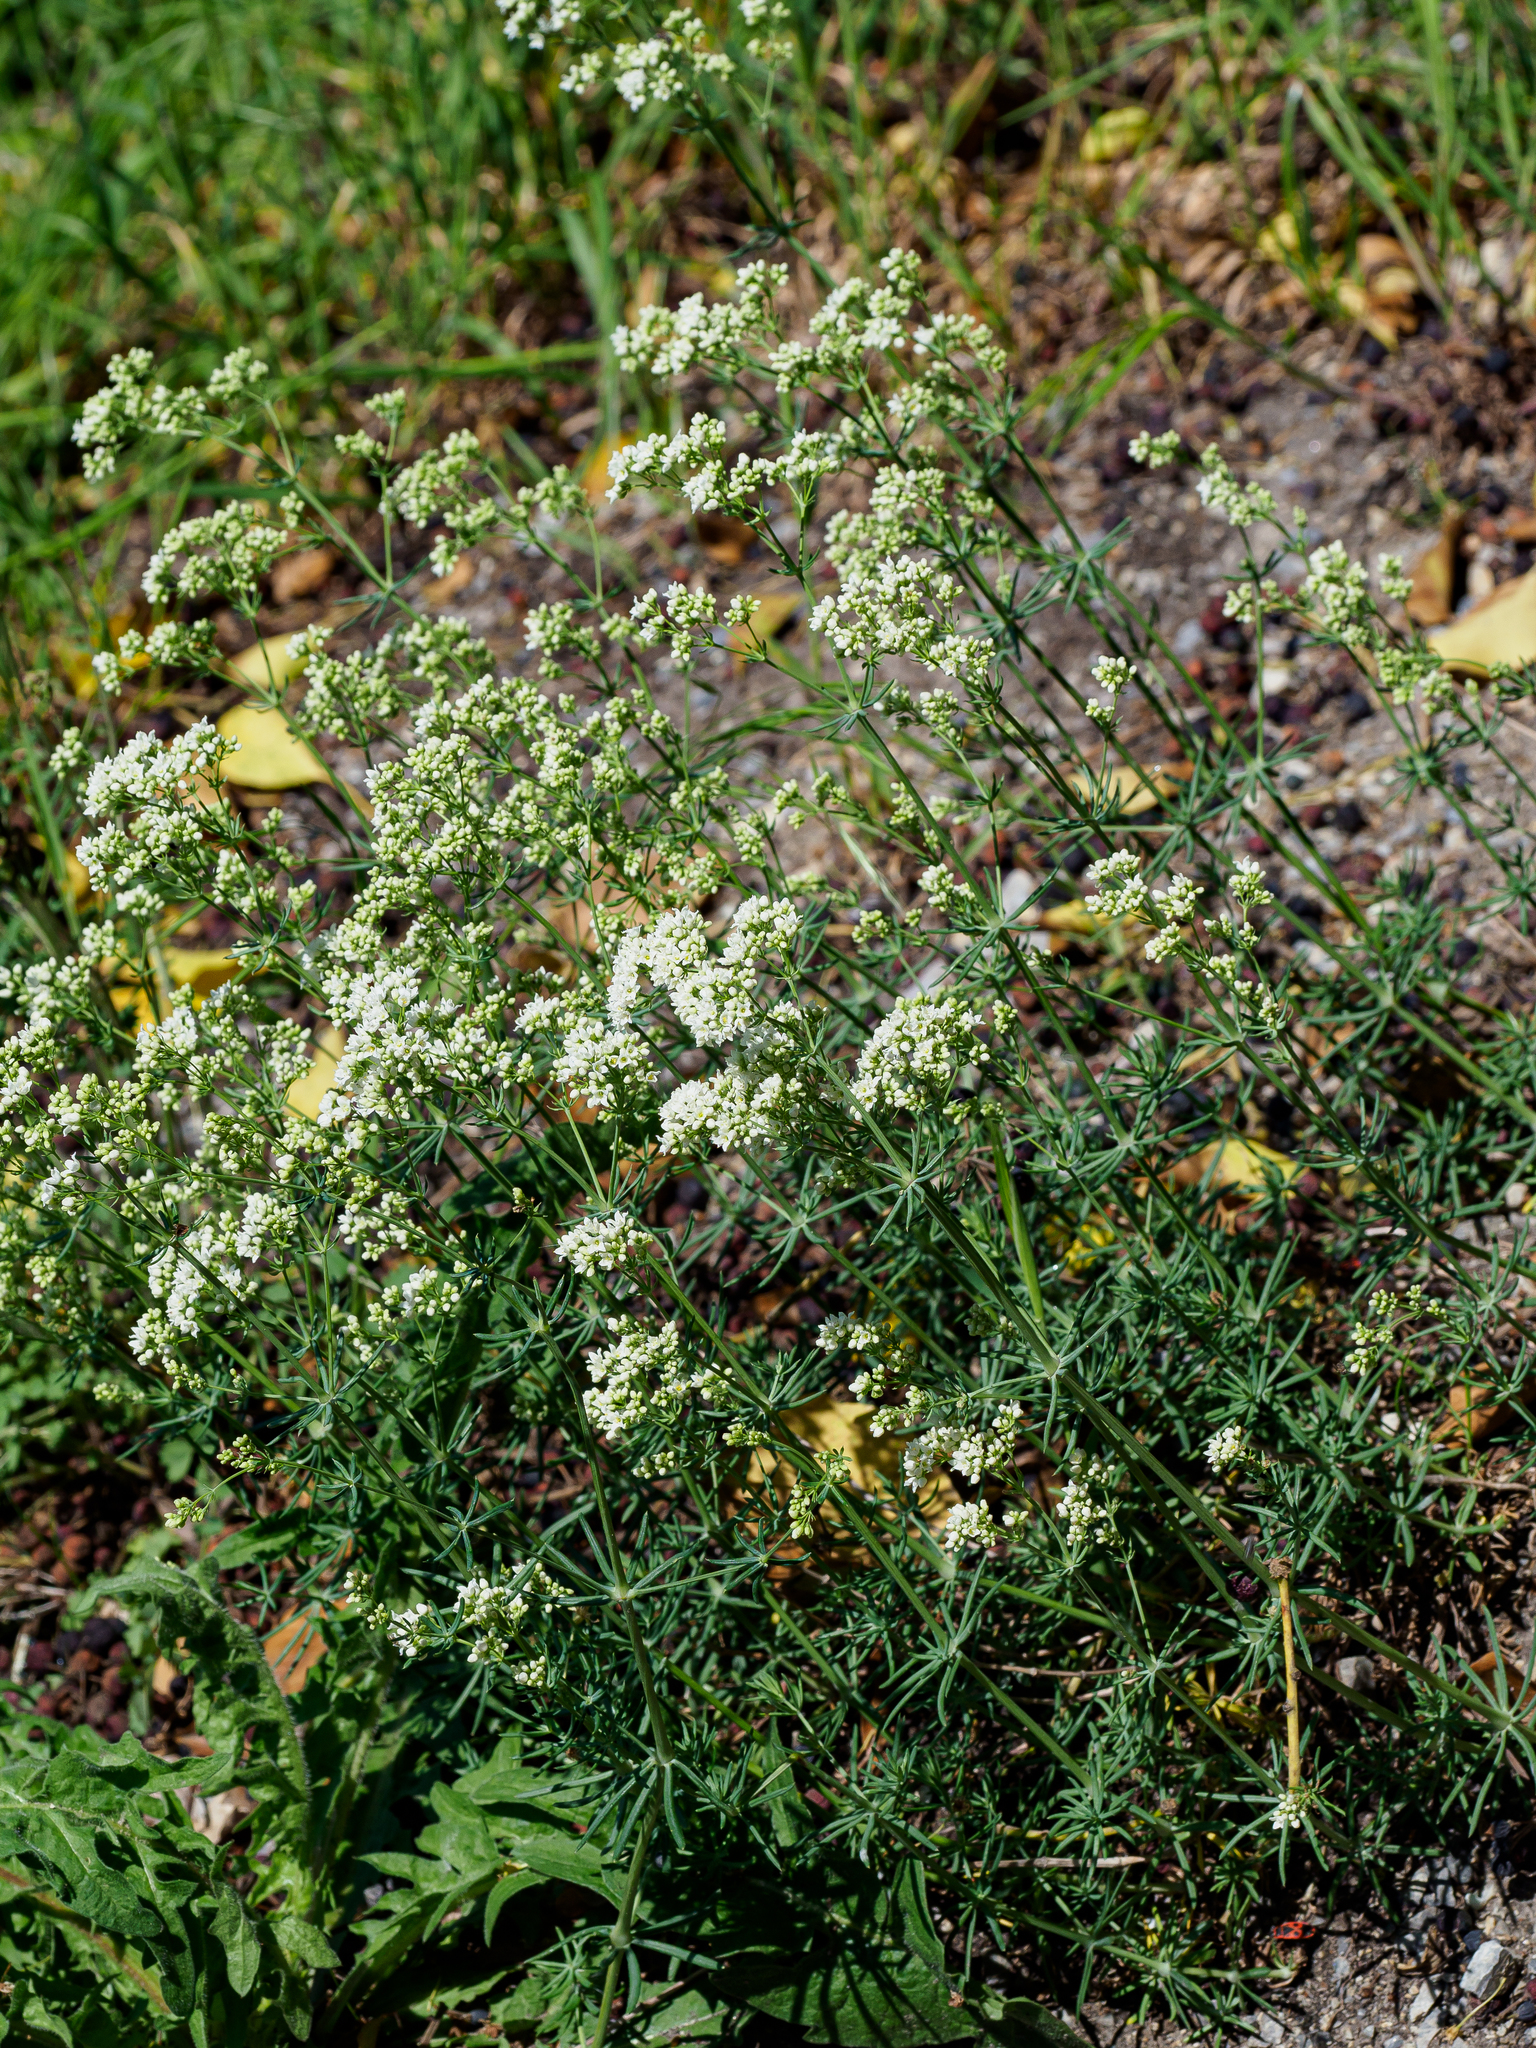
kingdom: Plantae
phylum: Tracheophyta
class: Magnoliopsida
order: Gentianales
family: Rubiaceae
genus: Galium
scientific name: Galium glaucum
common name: Waxy bedstraw
